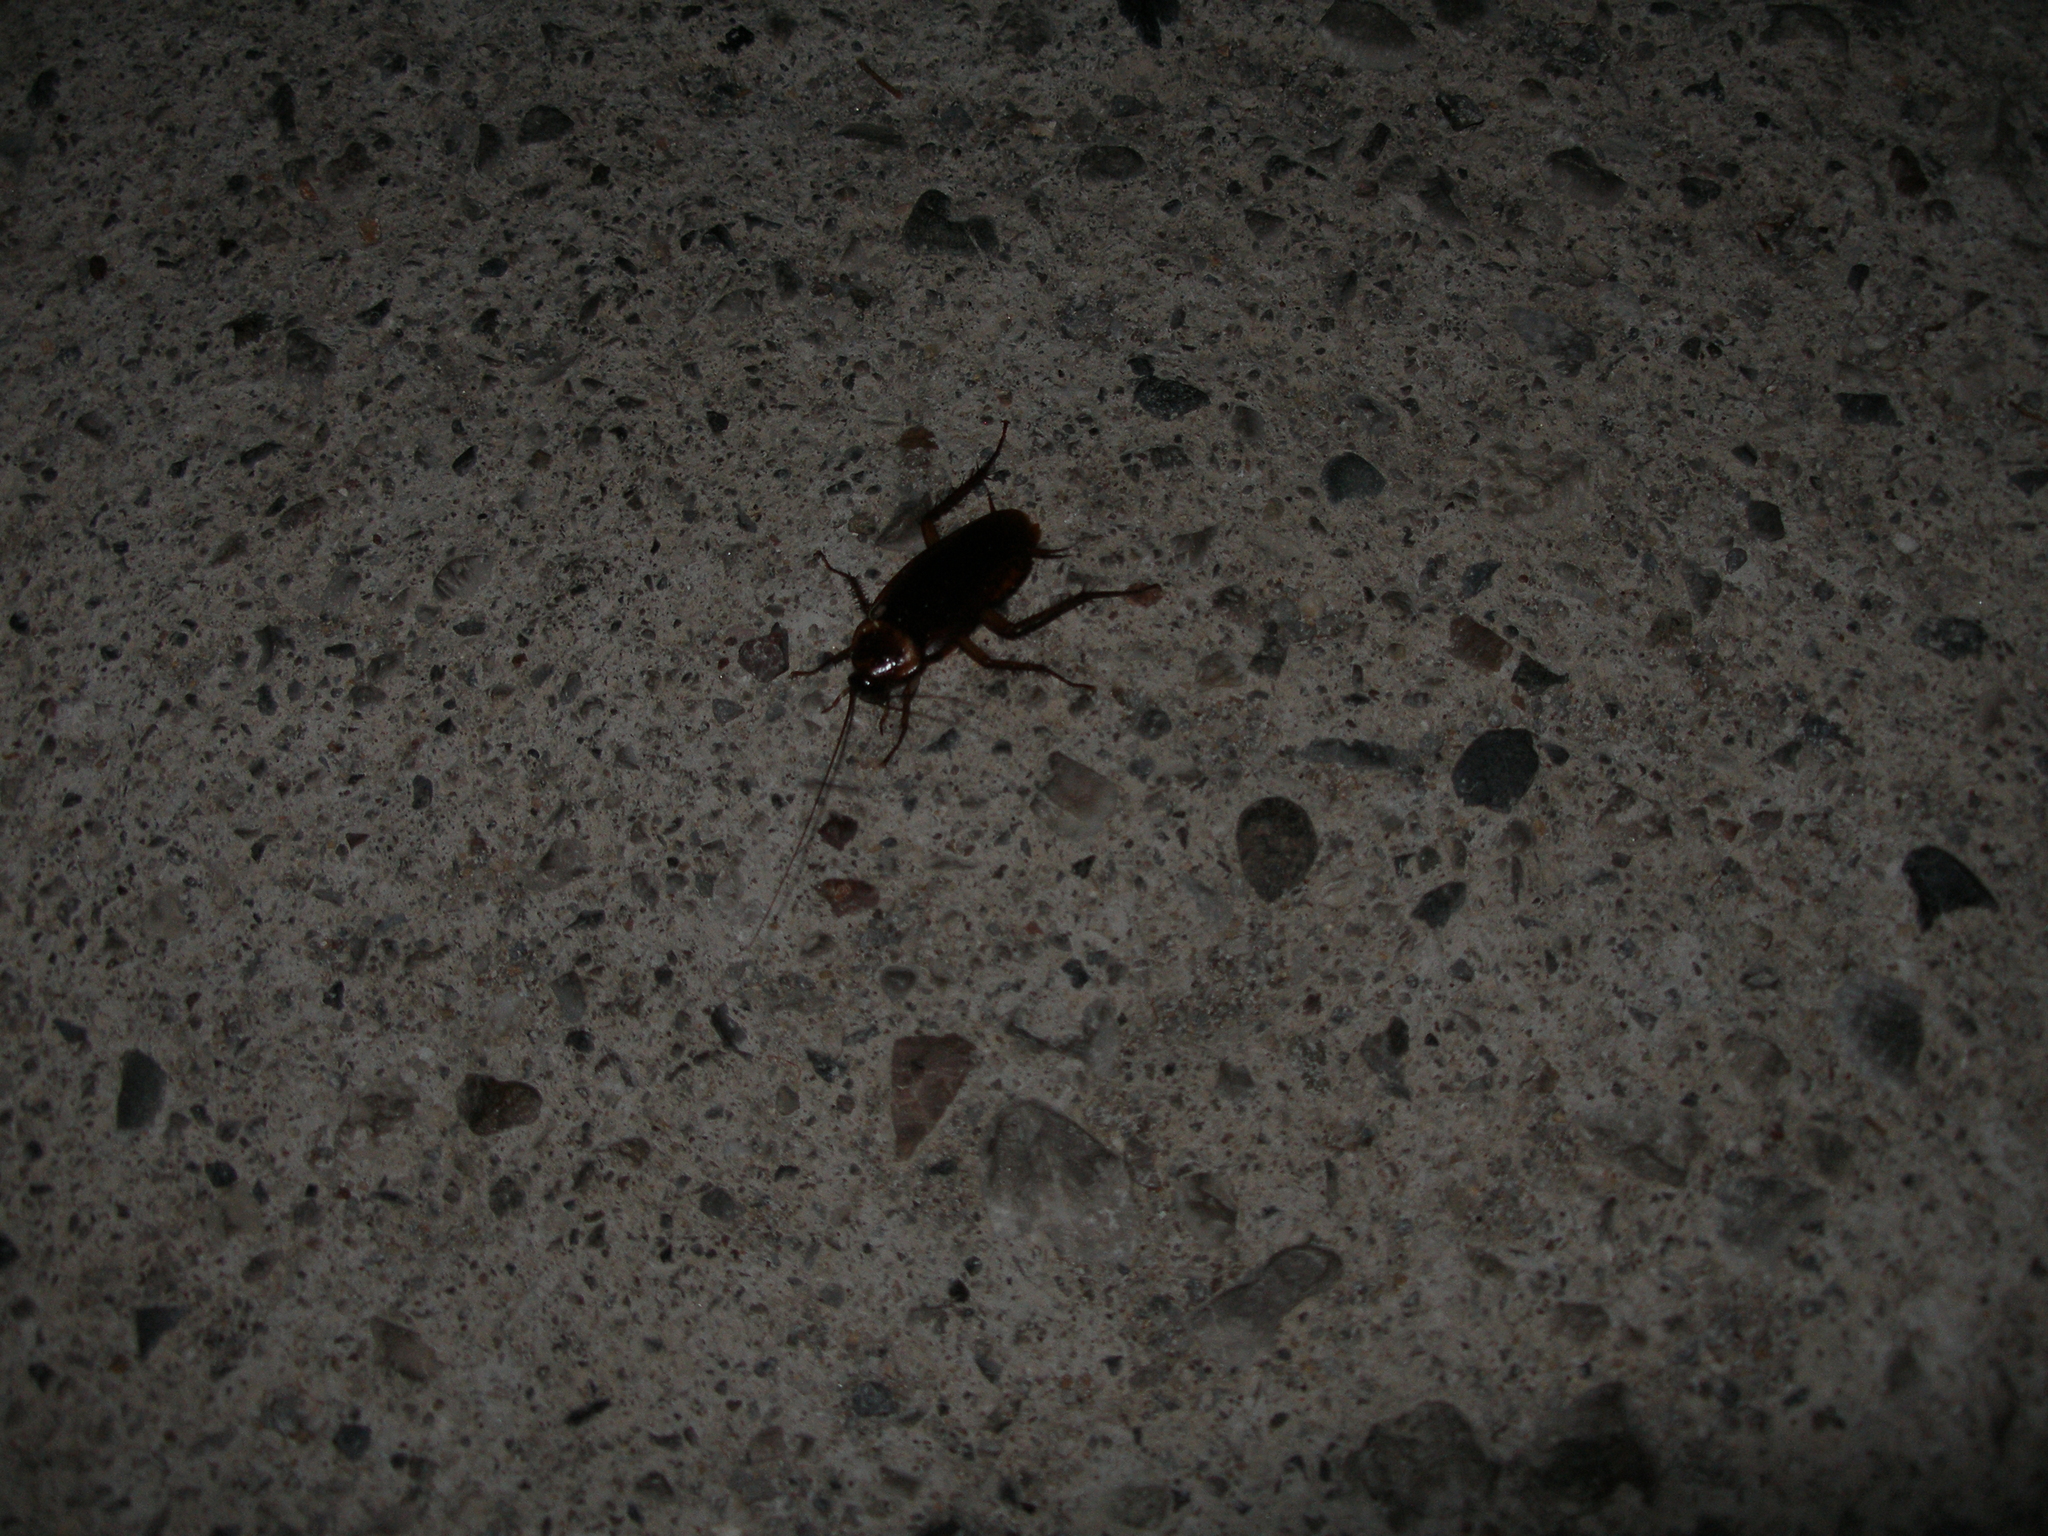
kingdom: Animalia
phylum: Arthropoda
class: Insecta
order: Blattodea
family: Blattidae
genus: Periplaneta
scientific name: Periplaneta americana
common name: American cockroach
